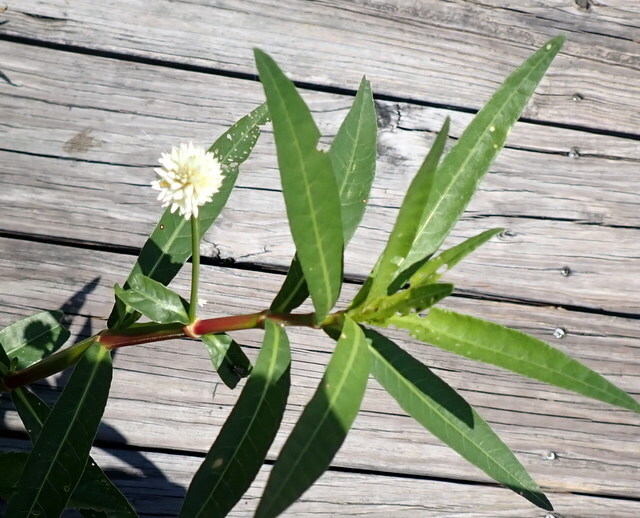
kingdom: Plantae
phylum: Tracheophyta
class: Magnoliopsida
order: Caryophyllales
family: Amaranthaceae
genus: Alternanthera
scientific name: Alternanthera philoxeroides
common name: Alligatorweed
